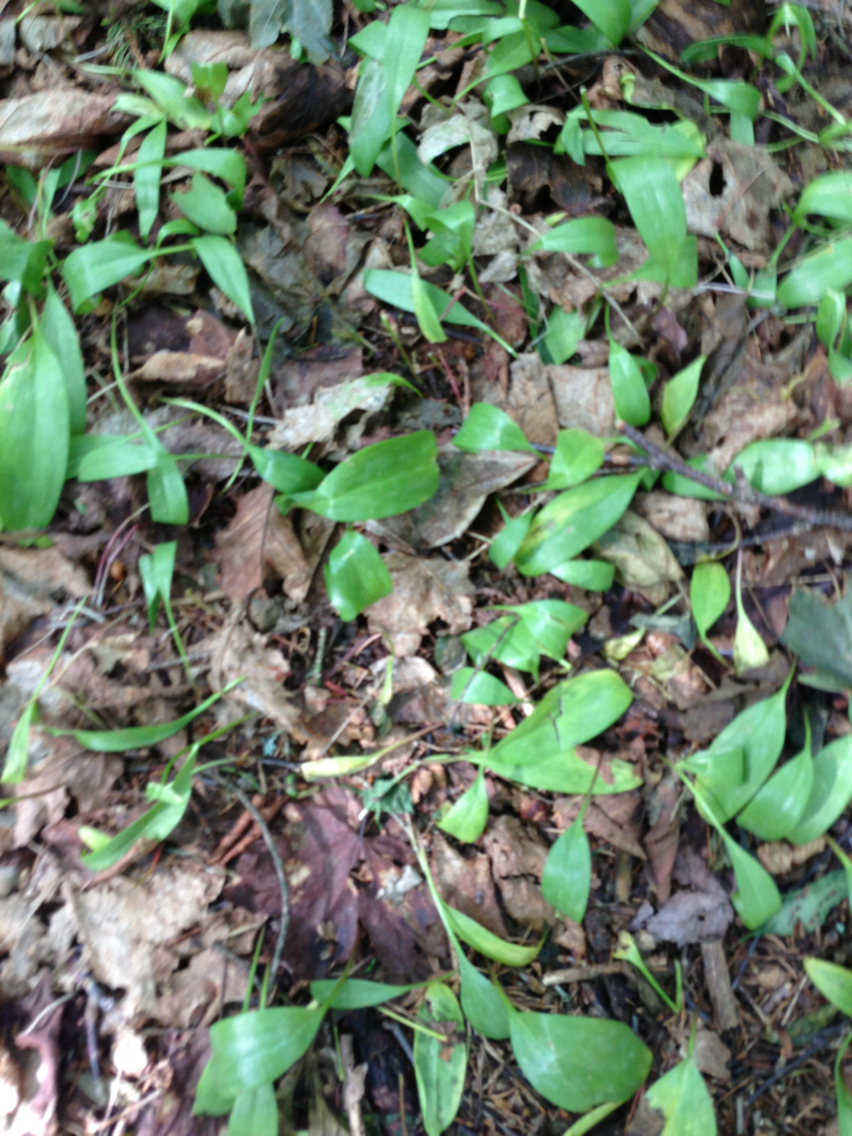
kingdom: Plantae
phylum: Tracheophyta
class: Liliopsida
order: Liliales
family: Liliaceae
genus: Erythronium
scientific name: Erythronium americanum
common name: Yellow adder's-tongue
